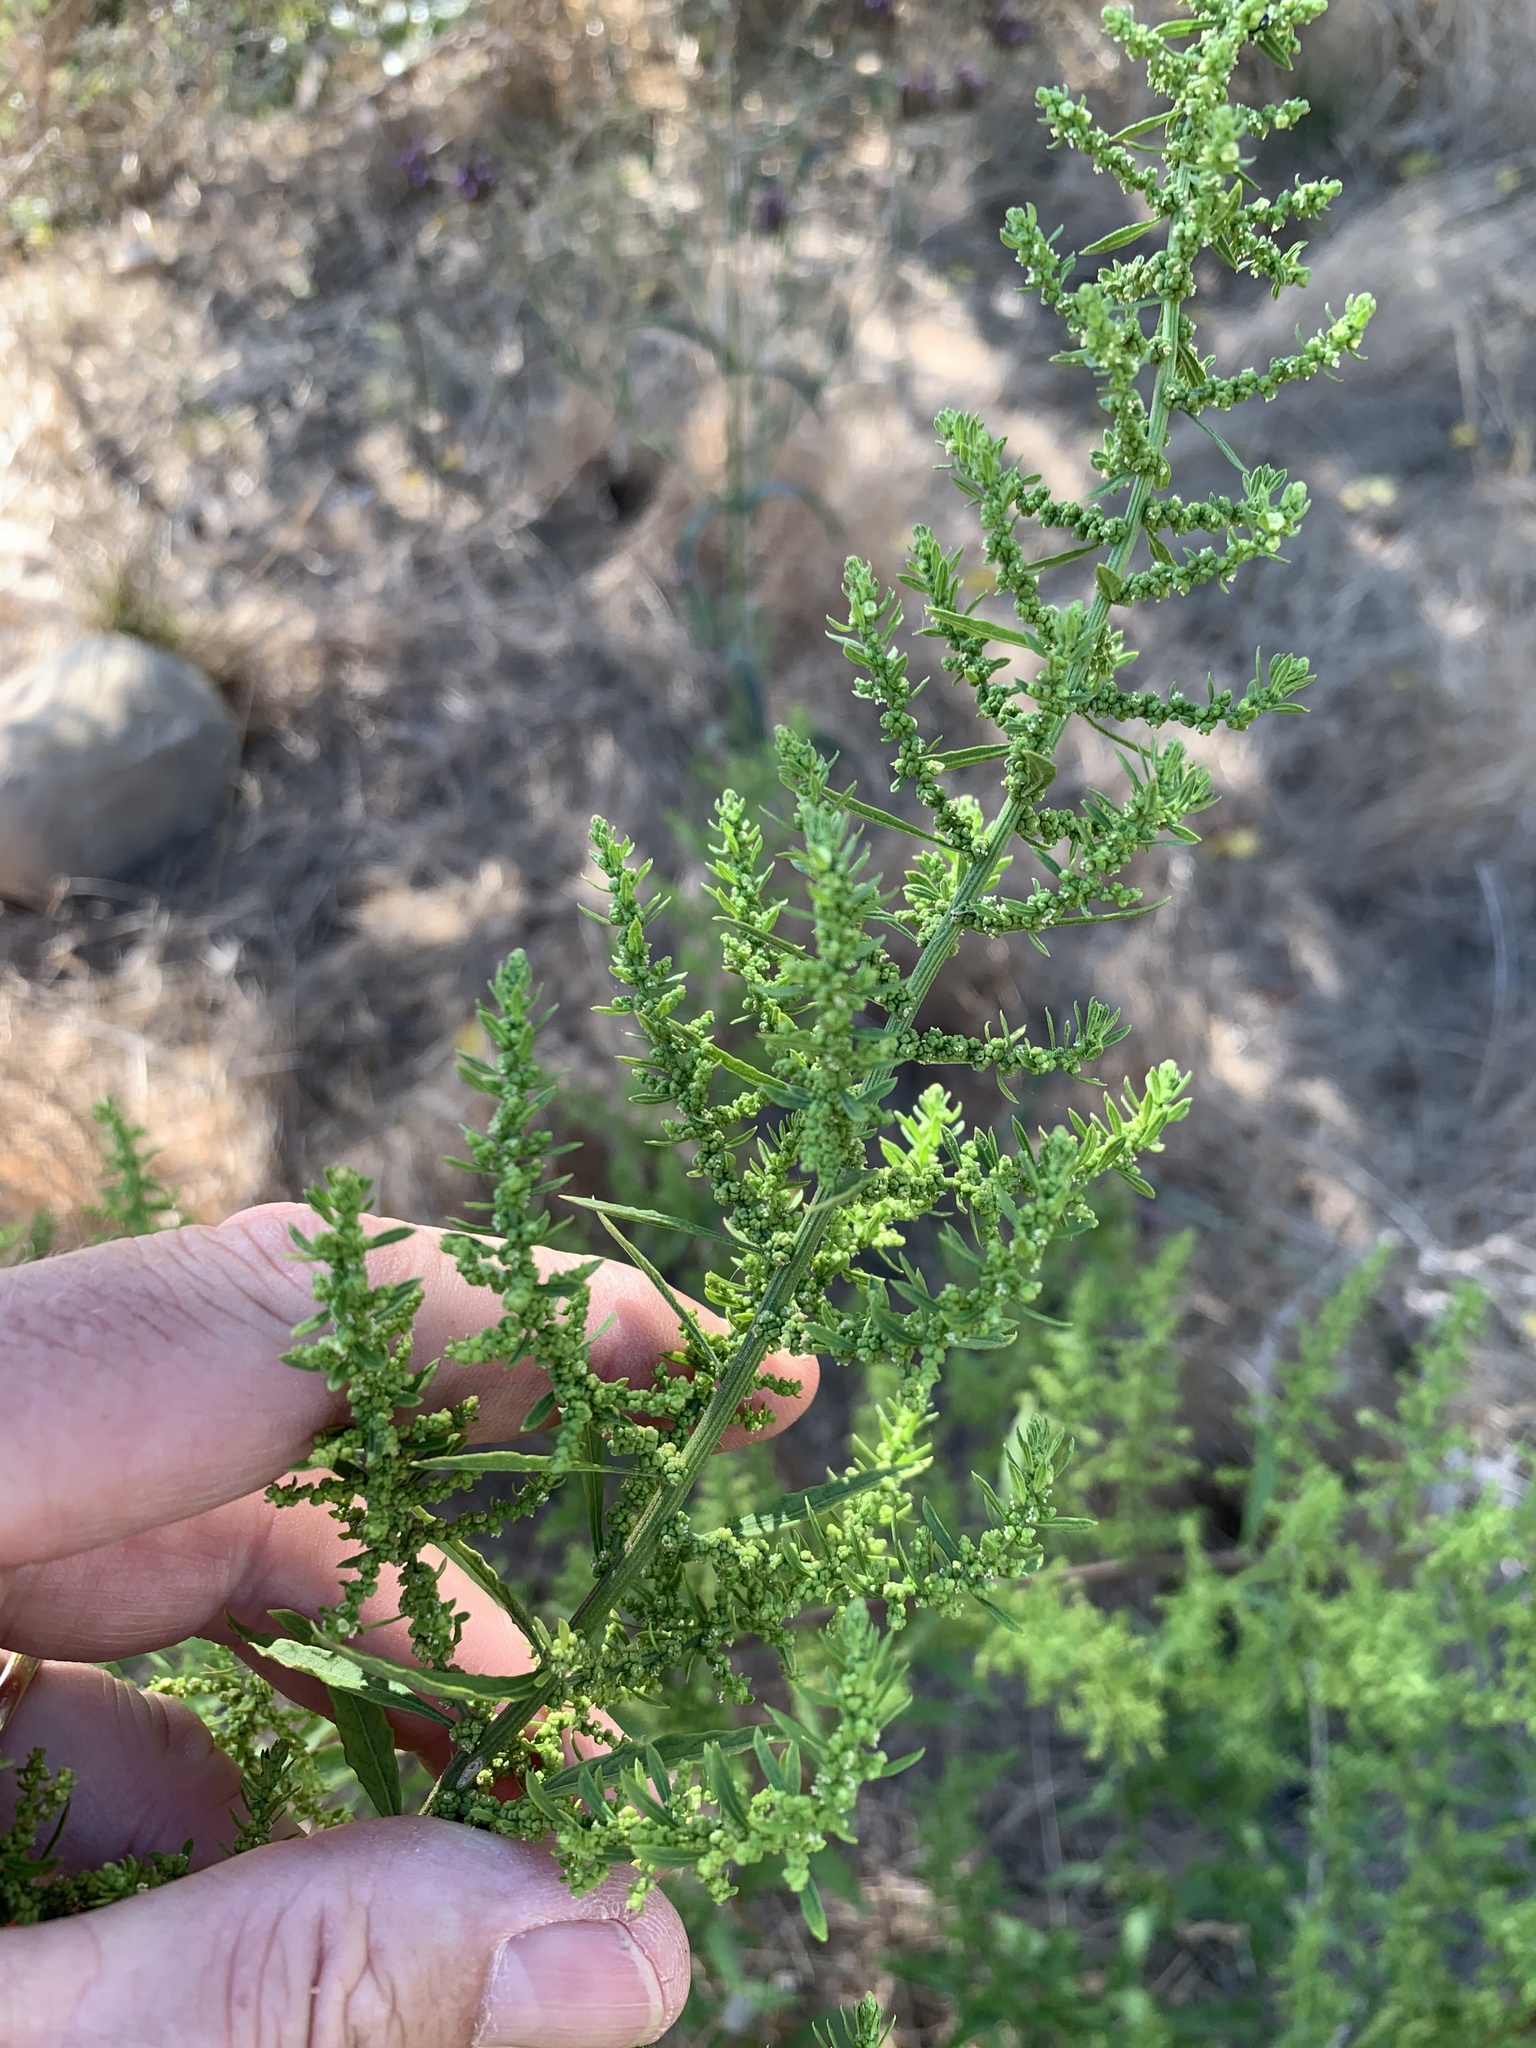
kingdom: Plantae
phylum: Tracheophyta
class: Magnoliopsida
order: Caryophyllales
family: Amaranthaceae
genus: Dysphania
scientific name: Dysphania ambrosioides
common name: Wormseed
